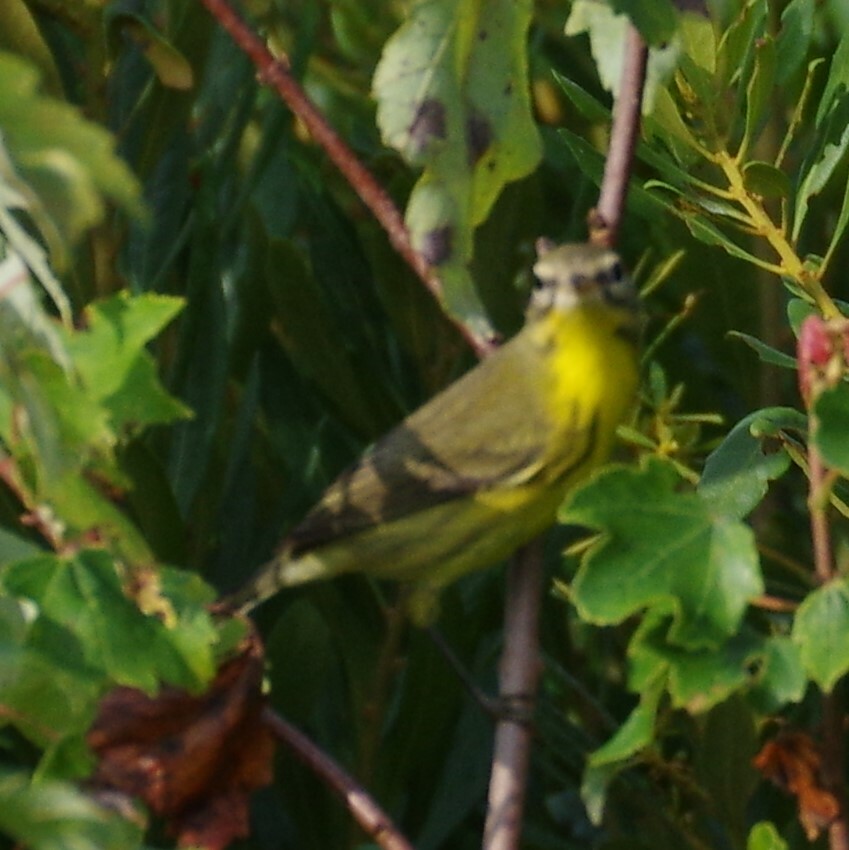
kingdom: Animalia
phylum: Chordata
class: Aves
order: Passeriformes
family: Parulidae
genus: Setophaga
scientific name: Setophaga discolor
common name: Prairie warbler
